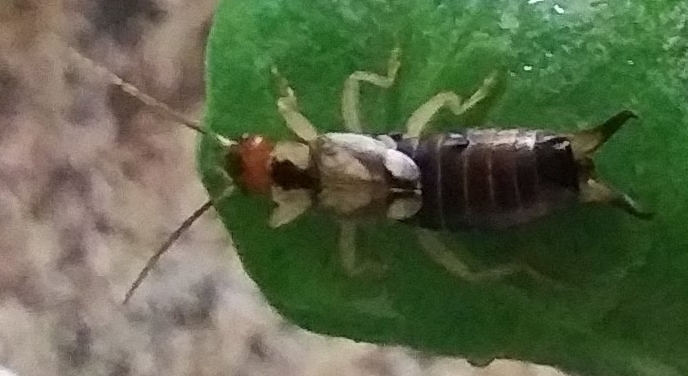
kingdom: Animalia
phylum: Arthropoda
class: Insecta
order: Dermaptera
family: Forficulidae
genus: Forficula
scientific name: Forficula
